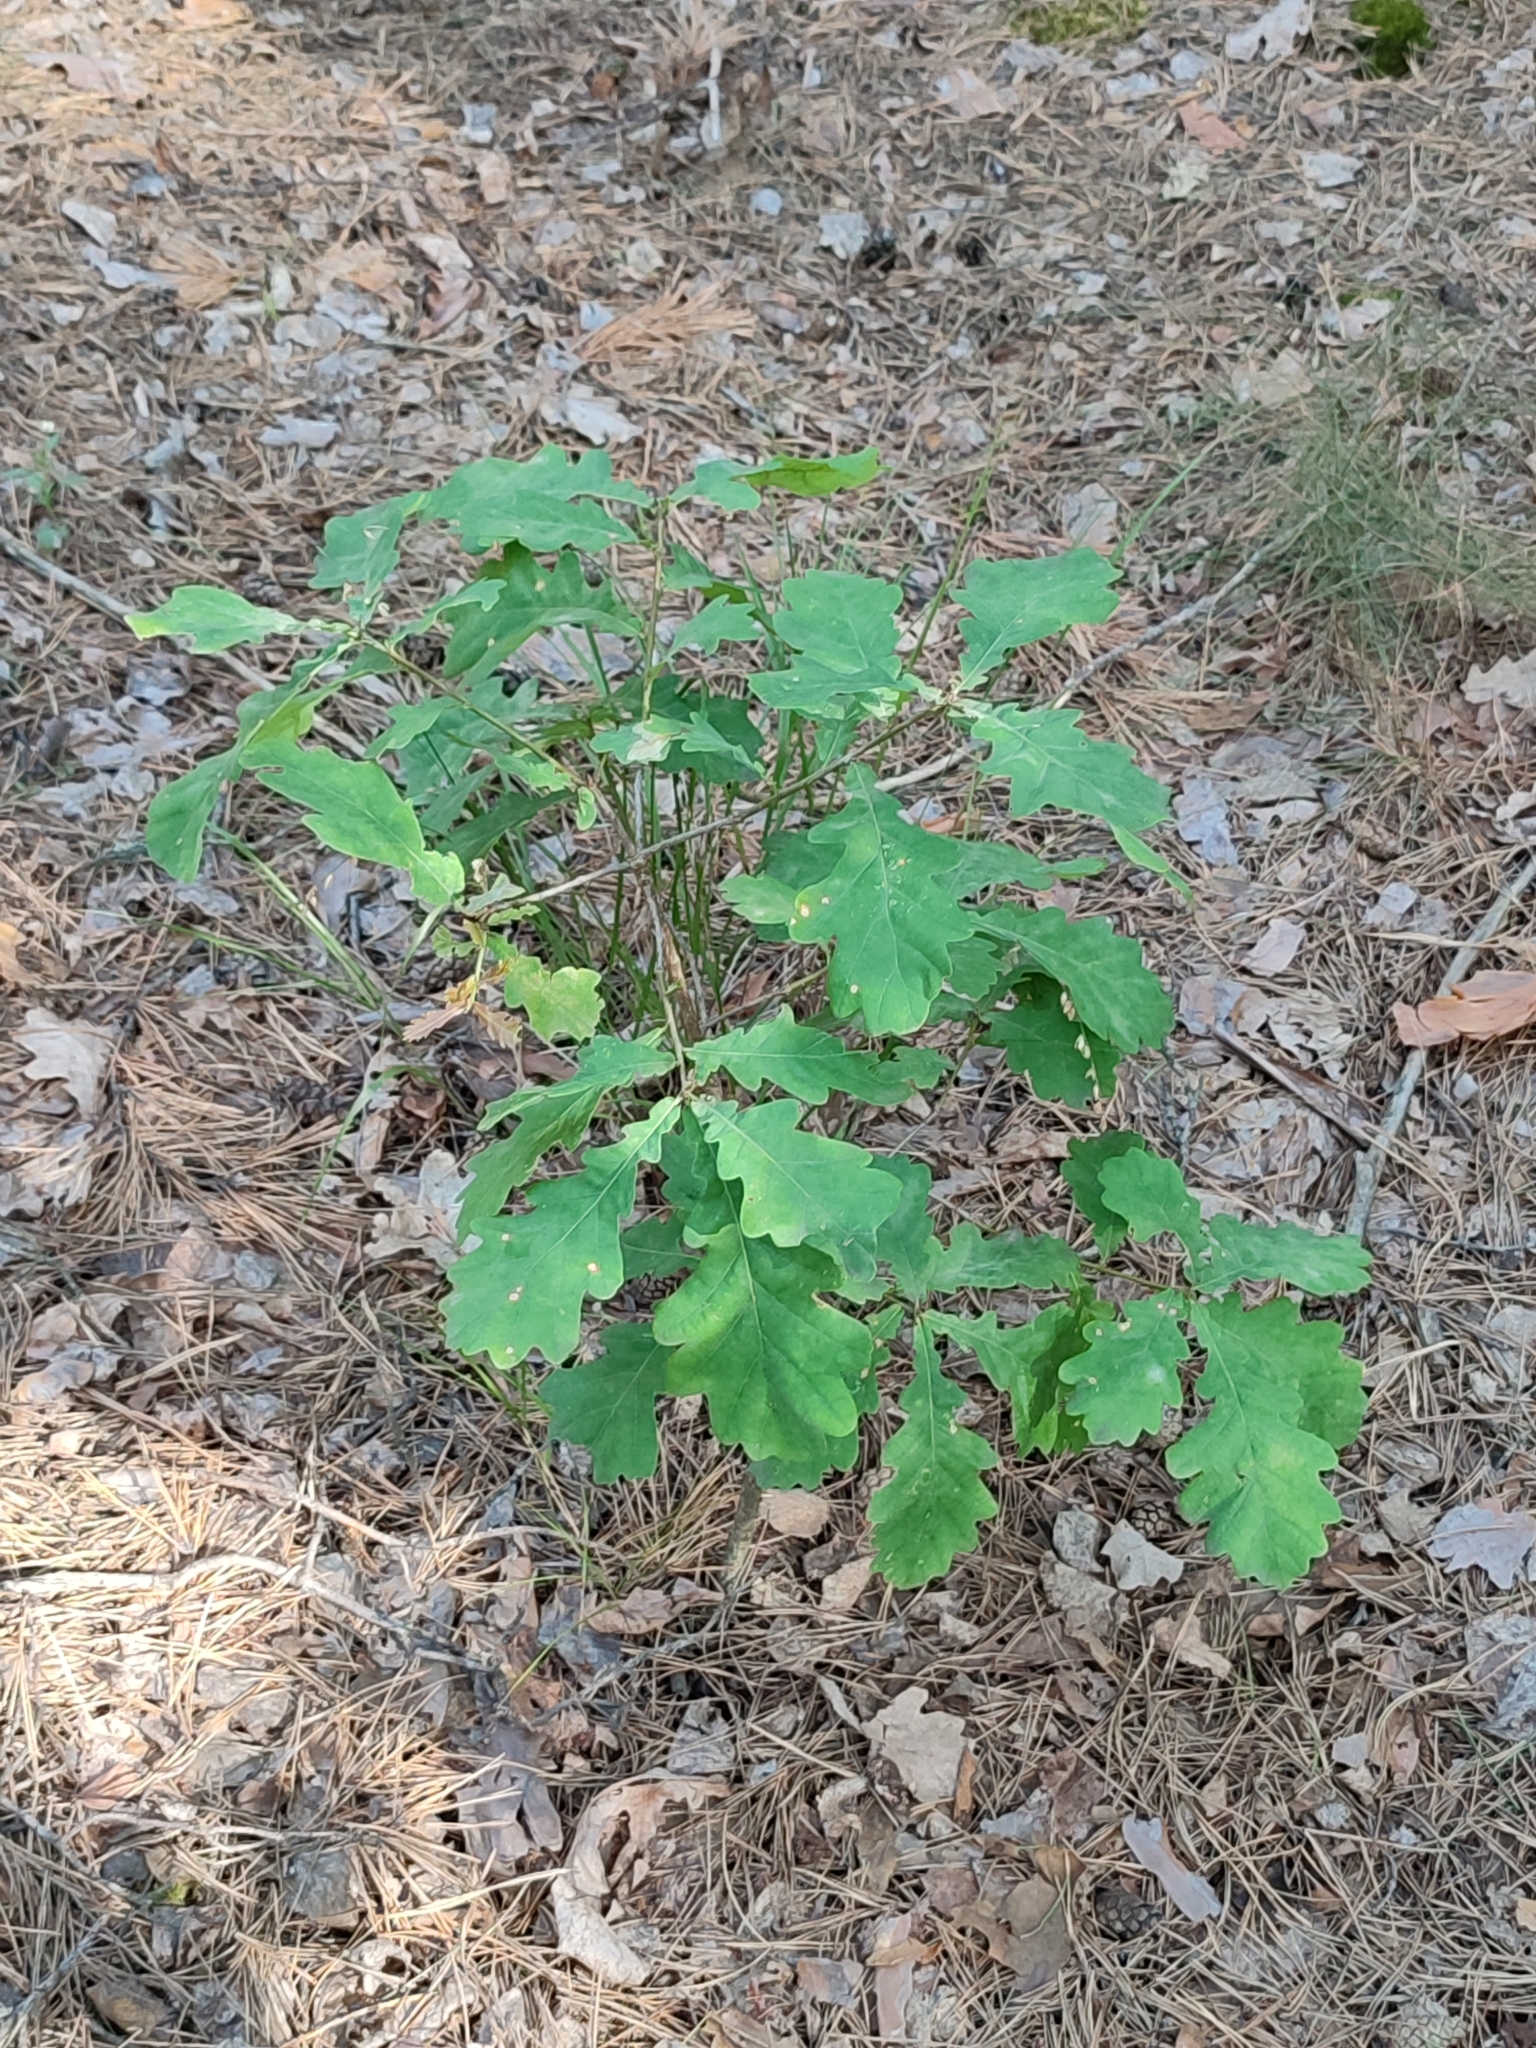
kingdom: Plantae
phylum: Tracheophyta
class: Magnoliopsida
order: Fagales
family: Fagaceae
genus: Quercus
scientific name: Quercus robur
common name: Pedunculate oak
